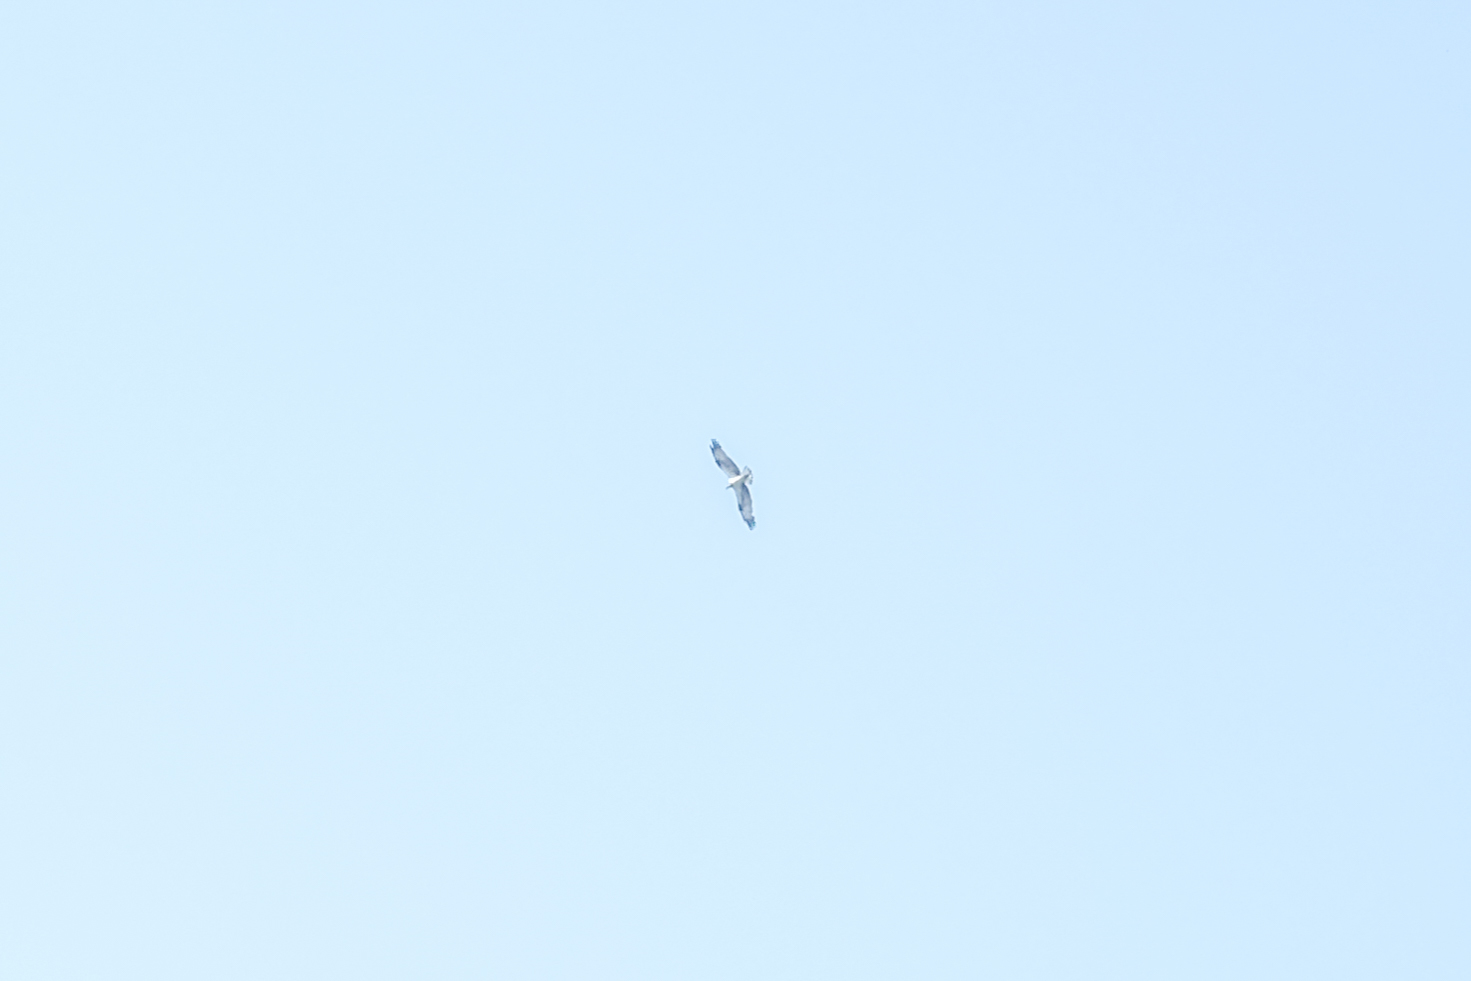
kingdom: Animalia
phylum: Chordata
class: Aves
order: Accipitriformes
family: Pandionidae
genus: Pandion
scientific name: Pandion haliaetus
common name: Osprey
